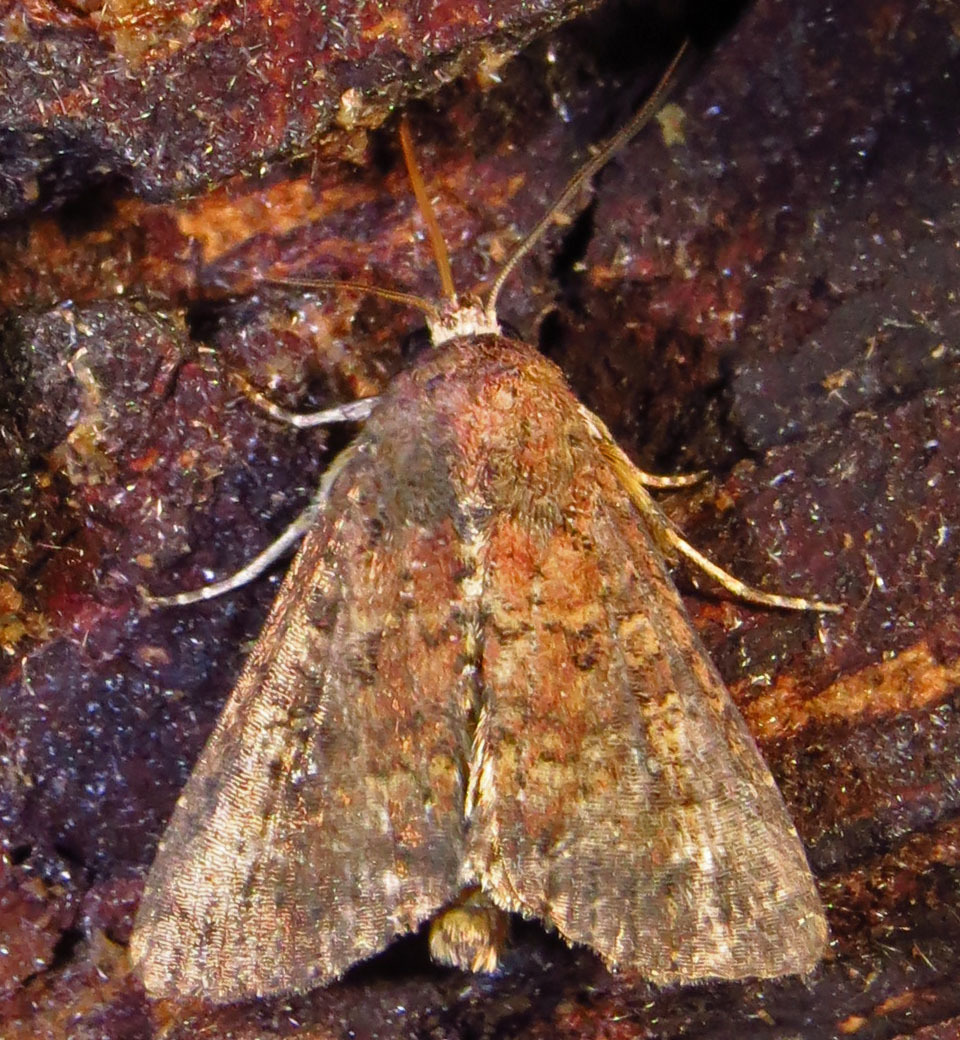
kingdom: Animalia
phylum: Arthropoda
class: Insecta
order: Lepidoptera
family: Noctuidae
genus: Condica
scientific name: Condica sutor
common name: Cobbler moth
